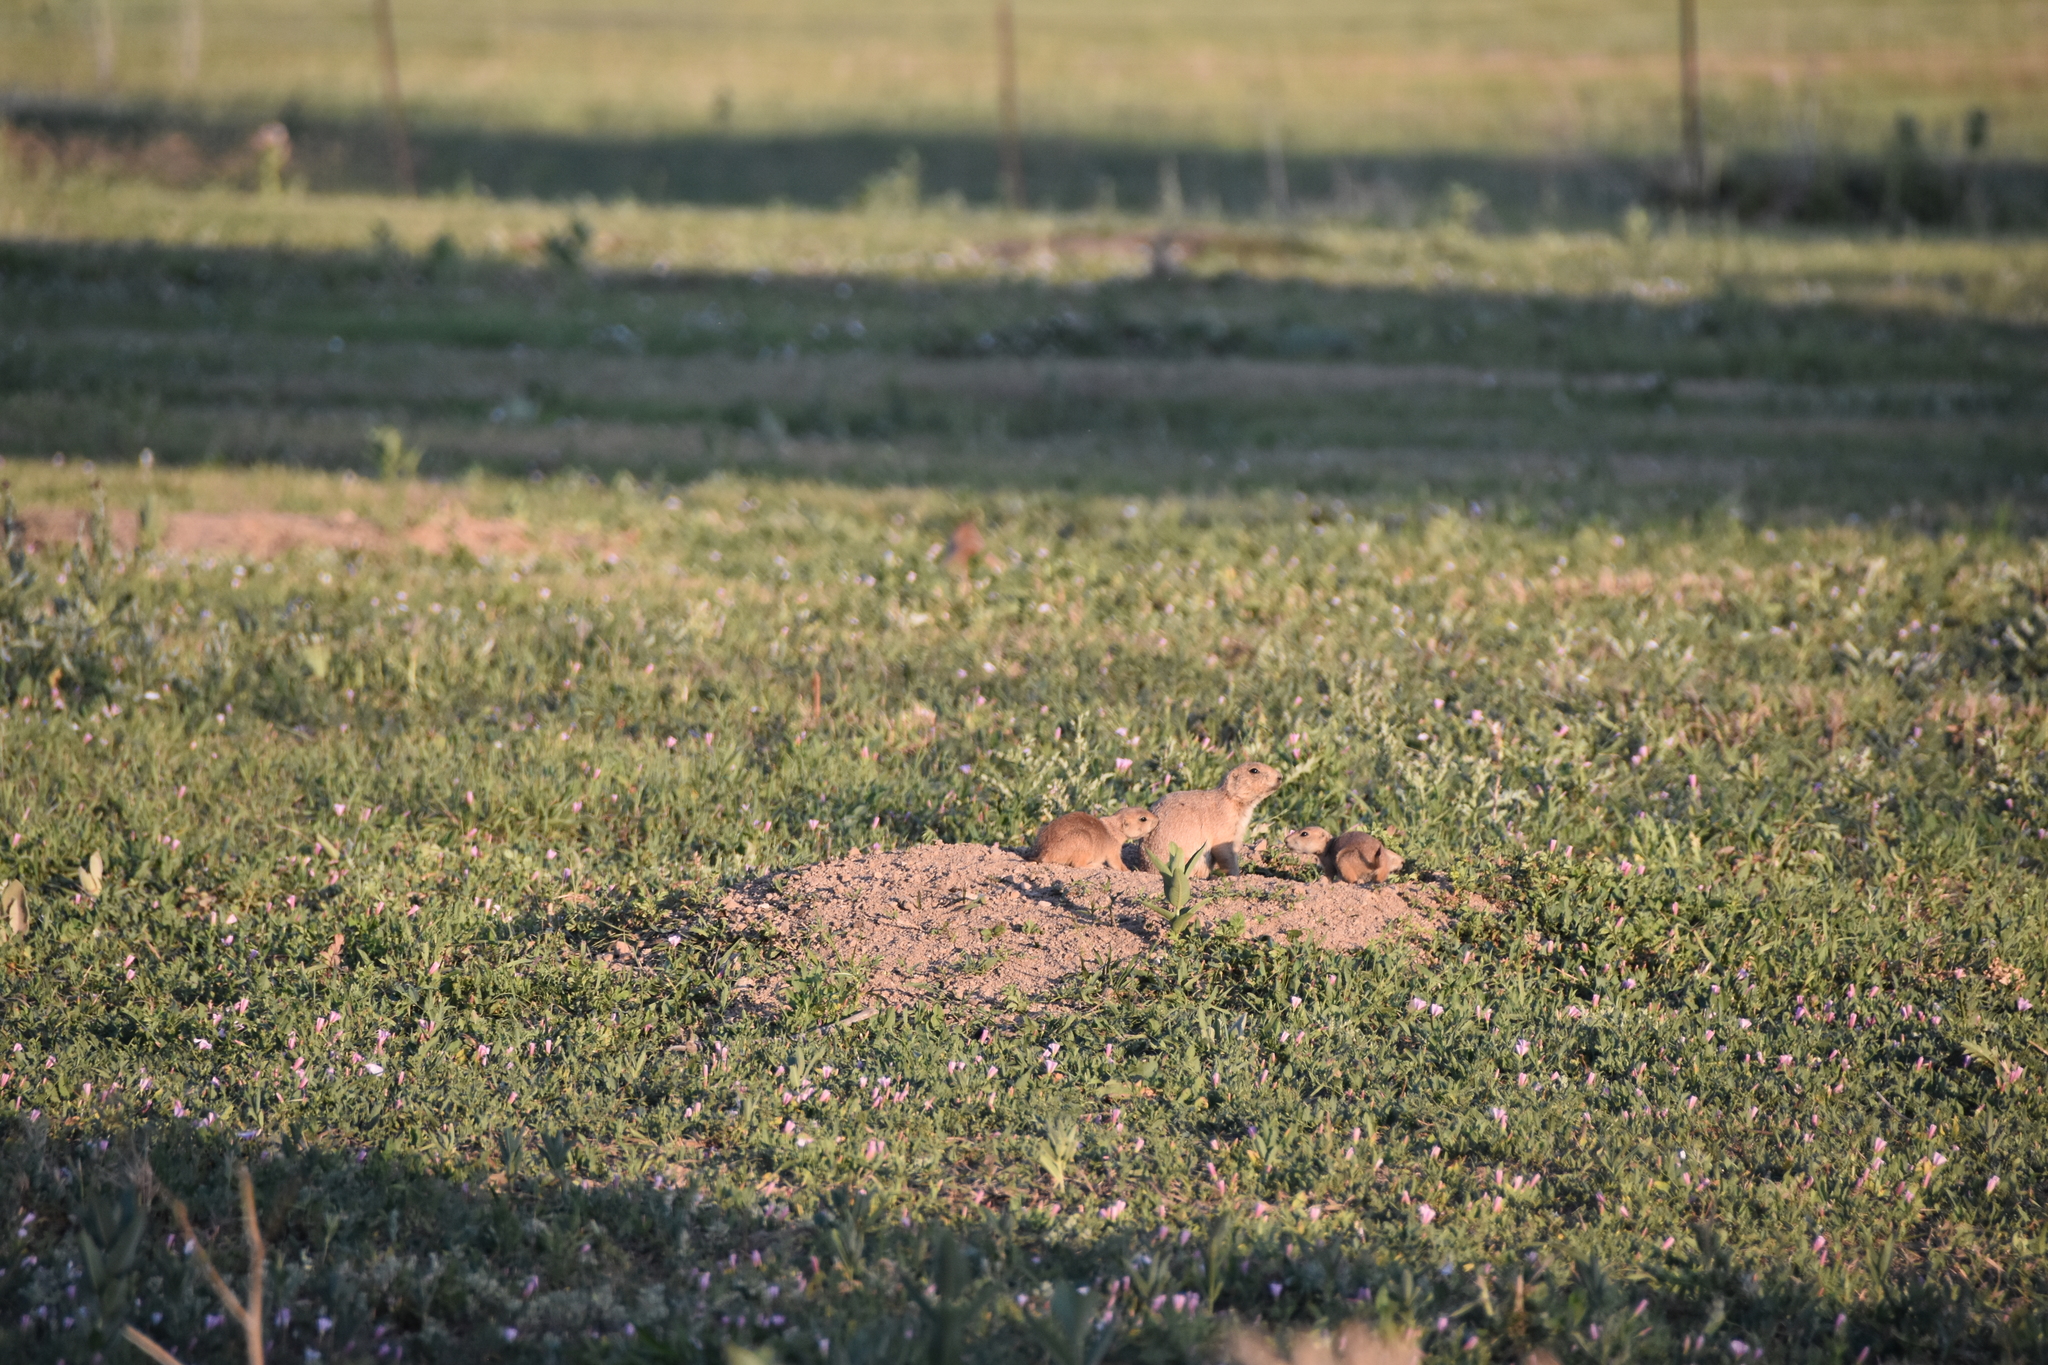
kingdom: Animalia
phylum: Chordata
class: Mammalia
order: Rodentia
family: Sciuridae
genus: Cynomys
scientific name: Cynomys ludovicianus
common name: Black-tailed prairie dog
